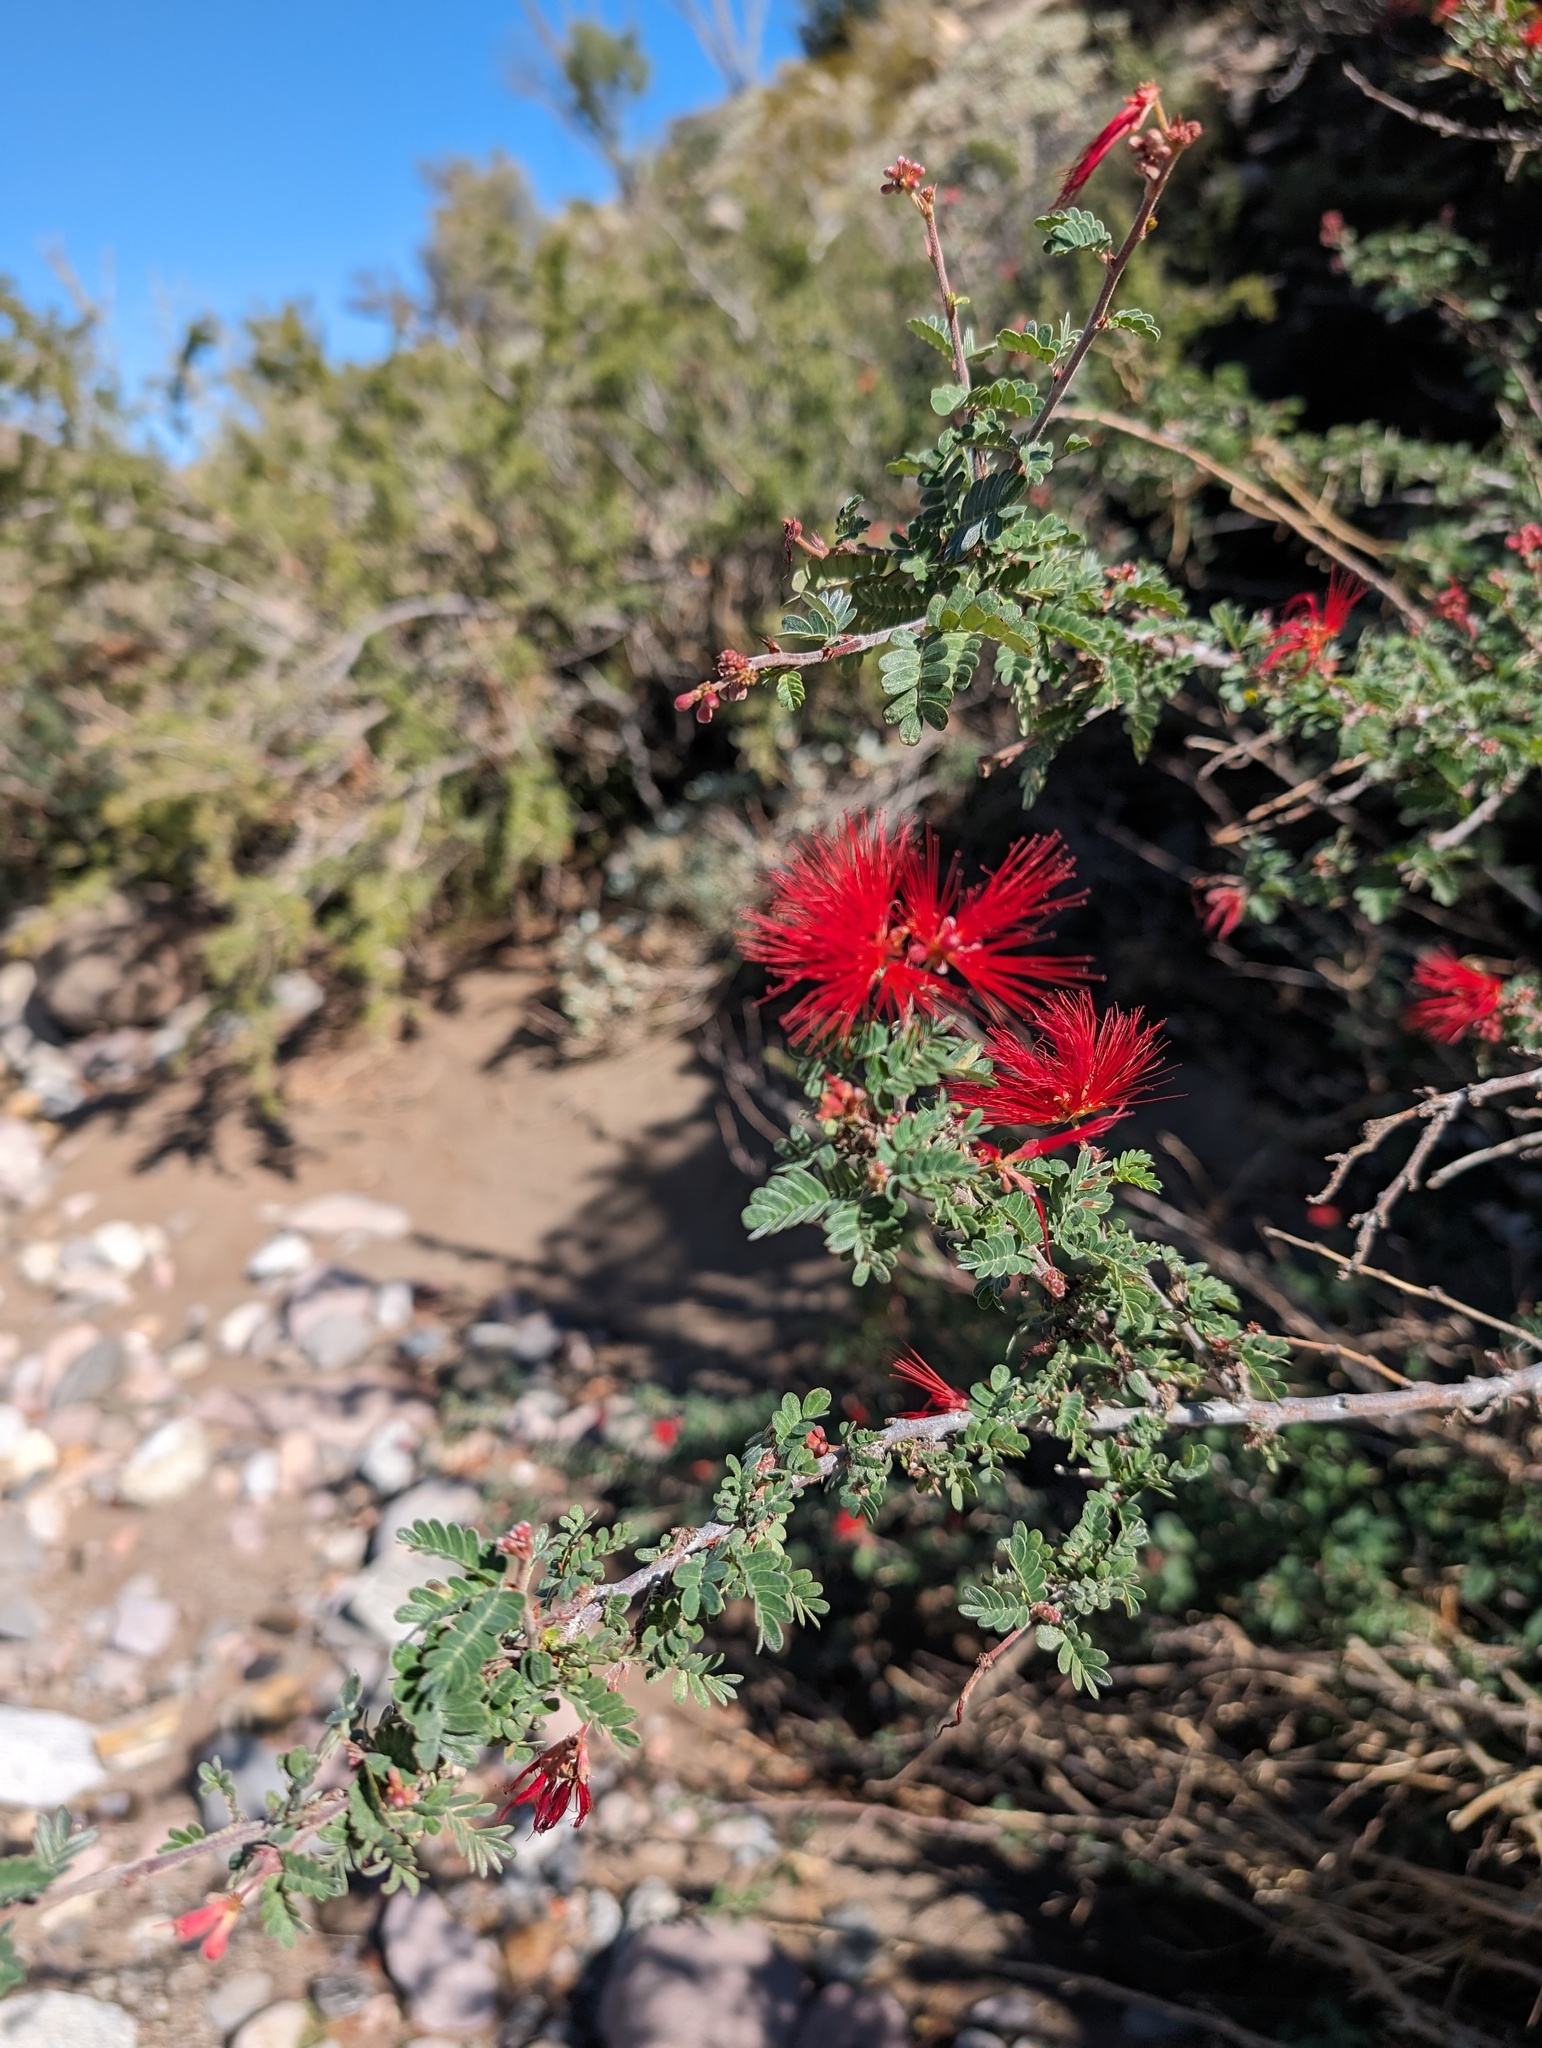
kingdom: Plantae
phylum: Tracheophyta
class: Magnoliopsida
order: Fabales
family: Fabaceae
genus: Calliandra
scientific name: Calliandra californica
